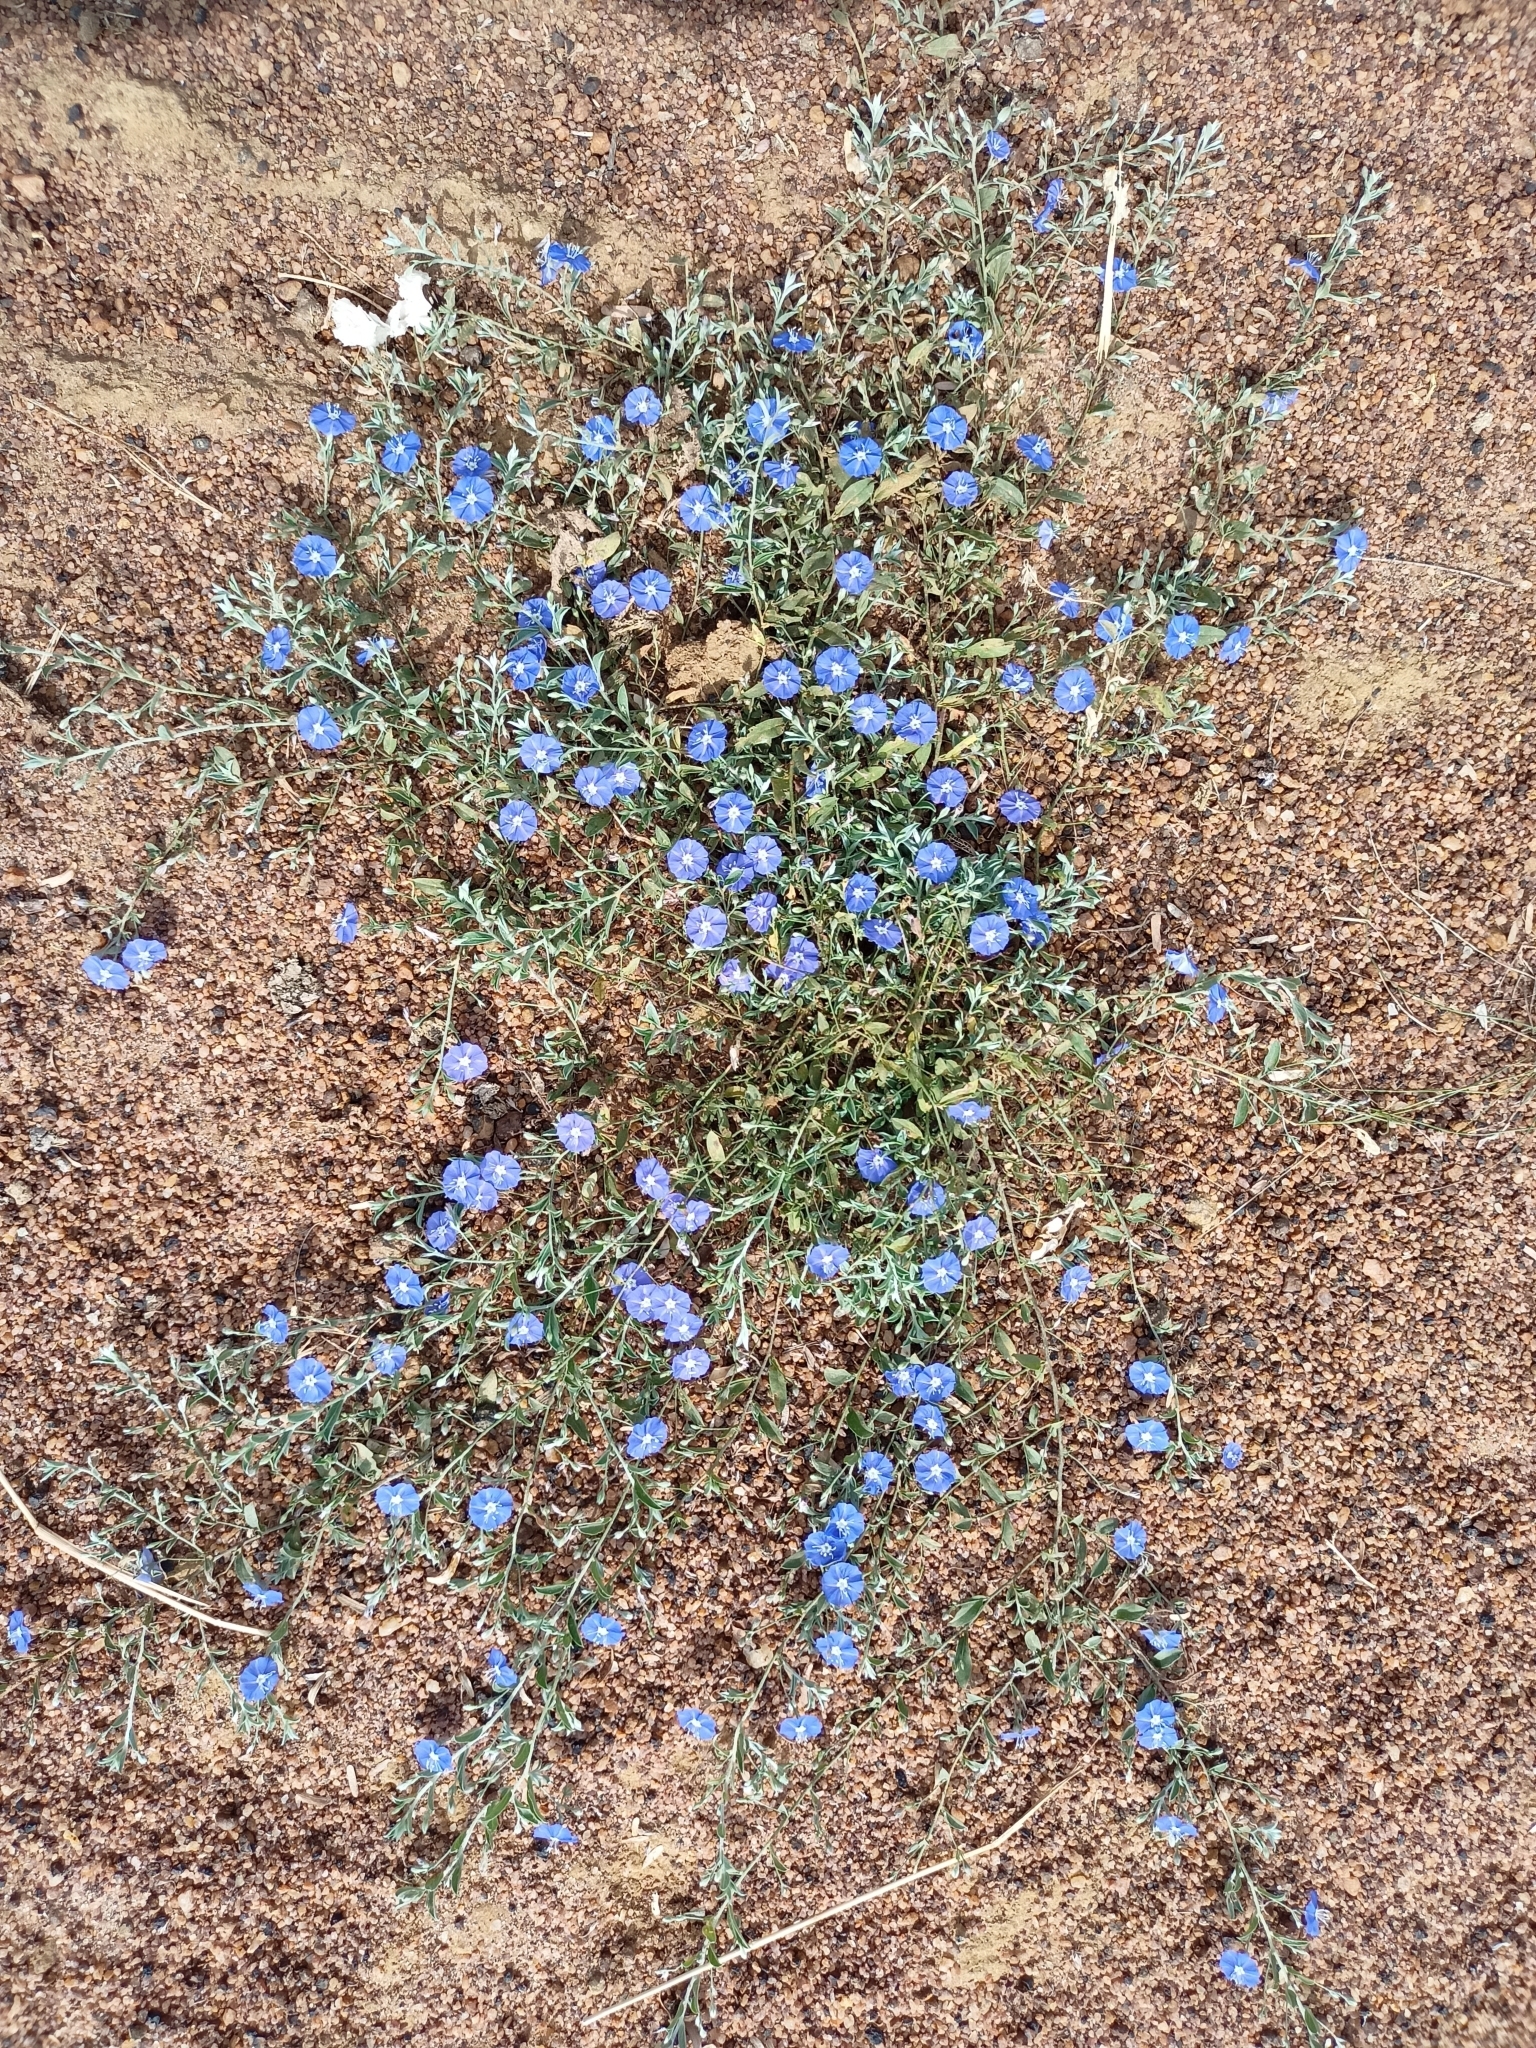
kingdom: Plantae
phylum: Tracheophyta
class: Magnoliopsida
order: Solanales
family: Convolvulaceae
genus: Evolvulus
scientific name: Evolvulus alsinoides
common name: Slender dwarf morning-glory
